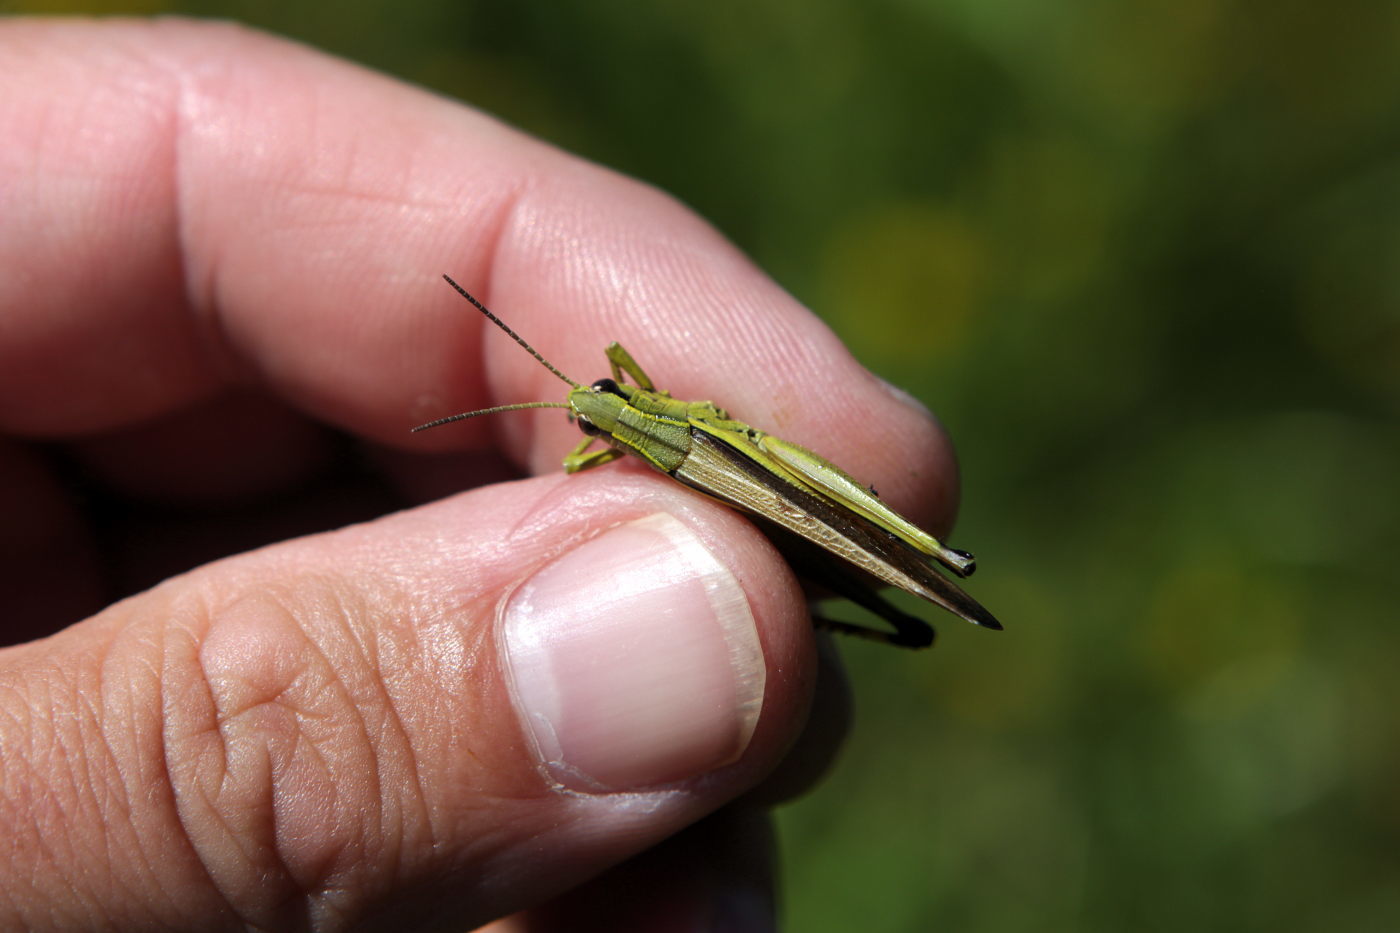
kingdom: Animalia
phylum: Arthropoda
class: Insecta
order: Orthoptera
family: Acrididae
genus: Stethophyma
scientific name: Stethophyma grossum
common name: Large marsh grasshopper
